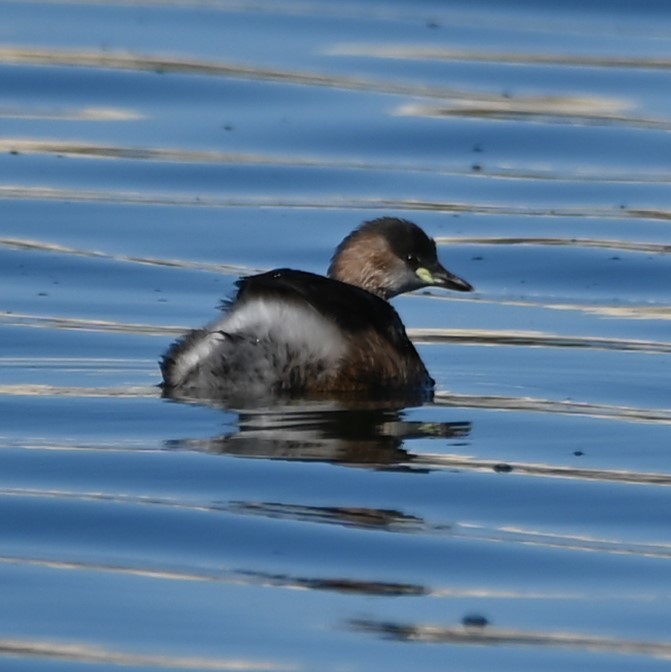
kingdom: Animalia
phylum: Chordata
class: Aves
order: Podicipediformes
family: Podicipedidae
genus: Tachybaptus
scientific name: Tachybaptus ruficollis
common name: Little grebe
